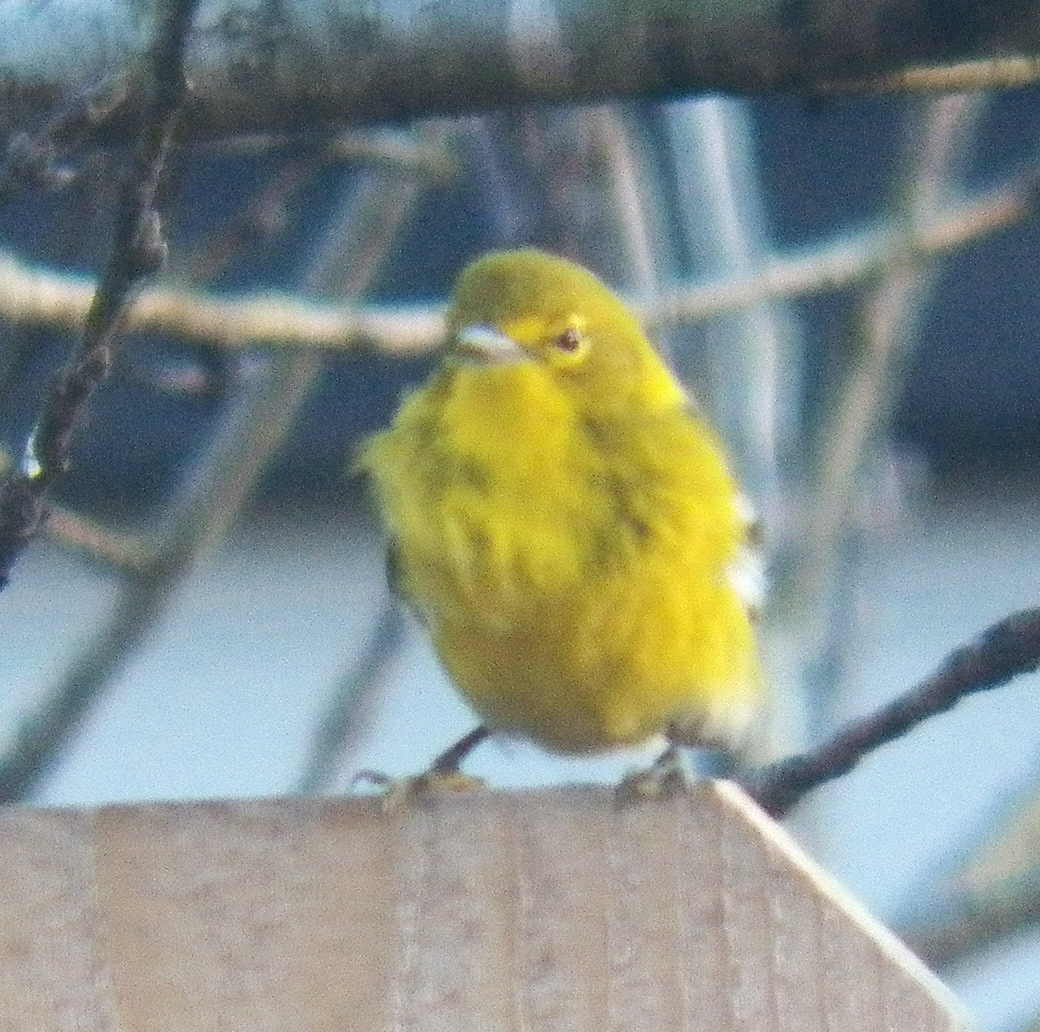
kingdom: Animalia
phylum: Chordata
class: Aves
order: Passeriformes
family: Parulidae
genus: Setophaga
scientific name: Setophaga pinus
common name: Pine warbler
